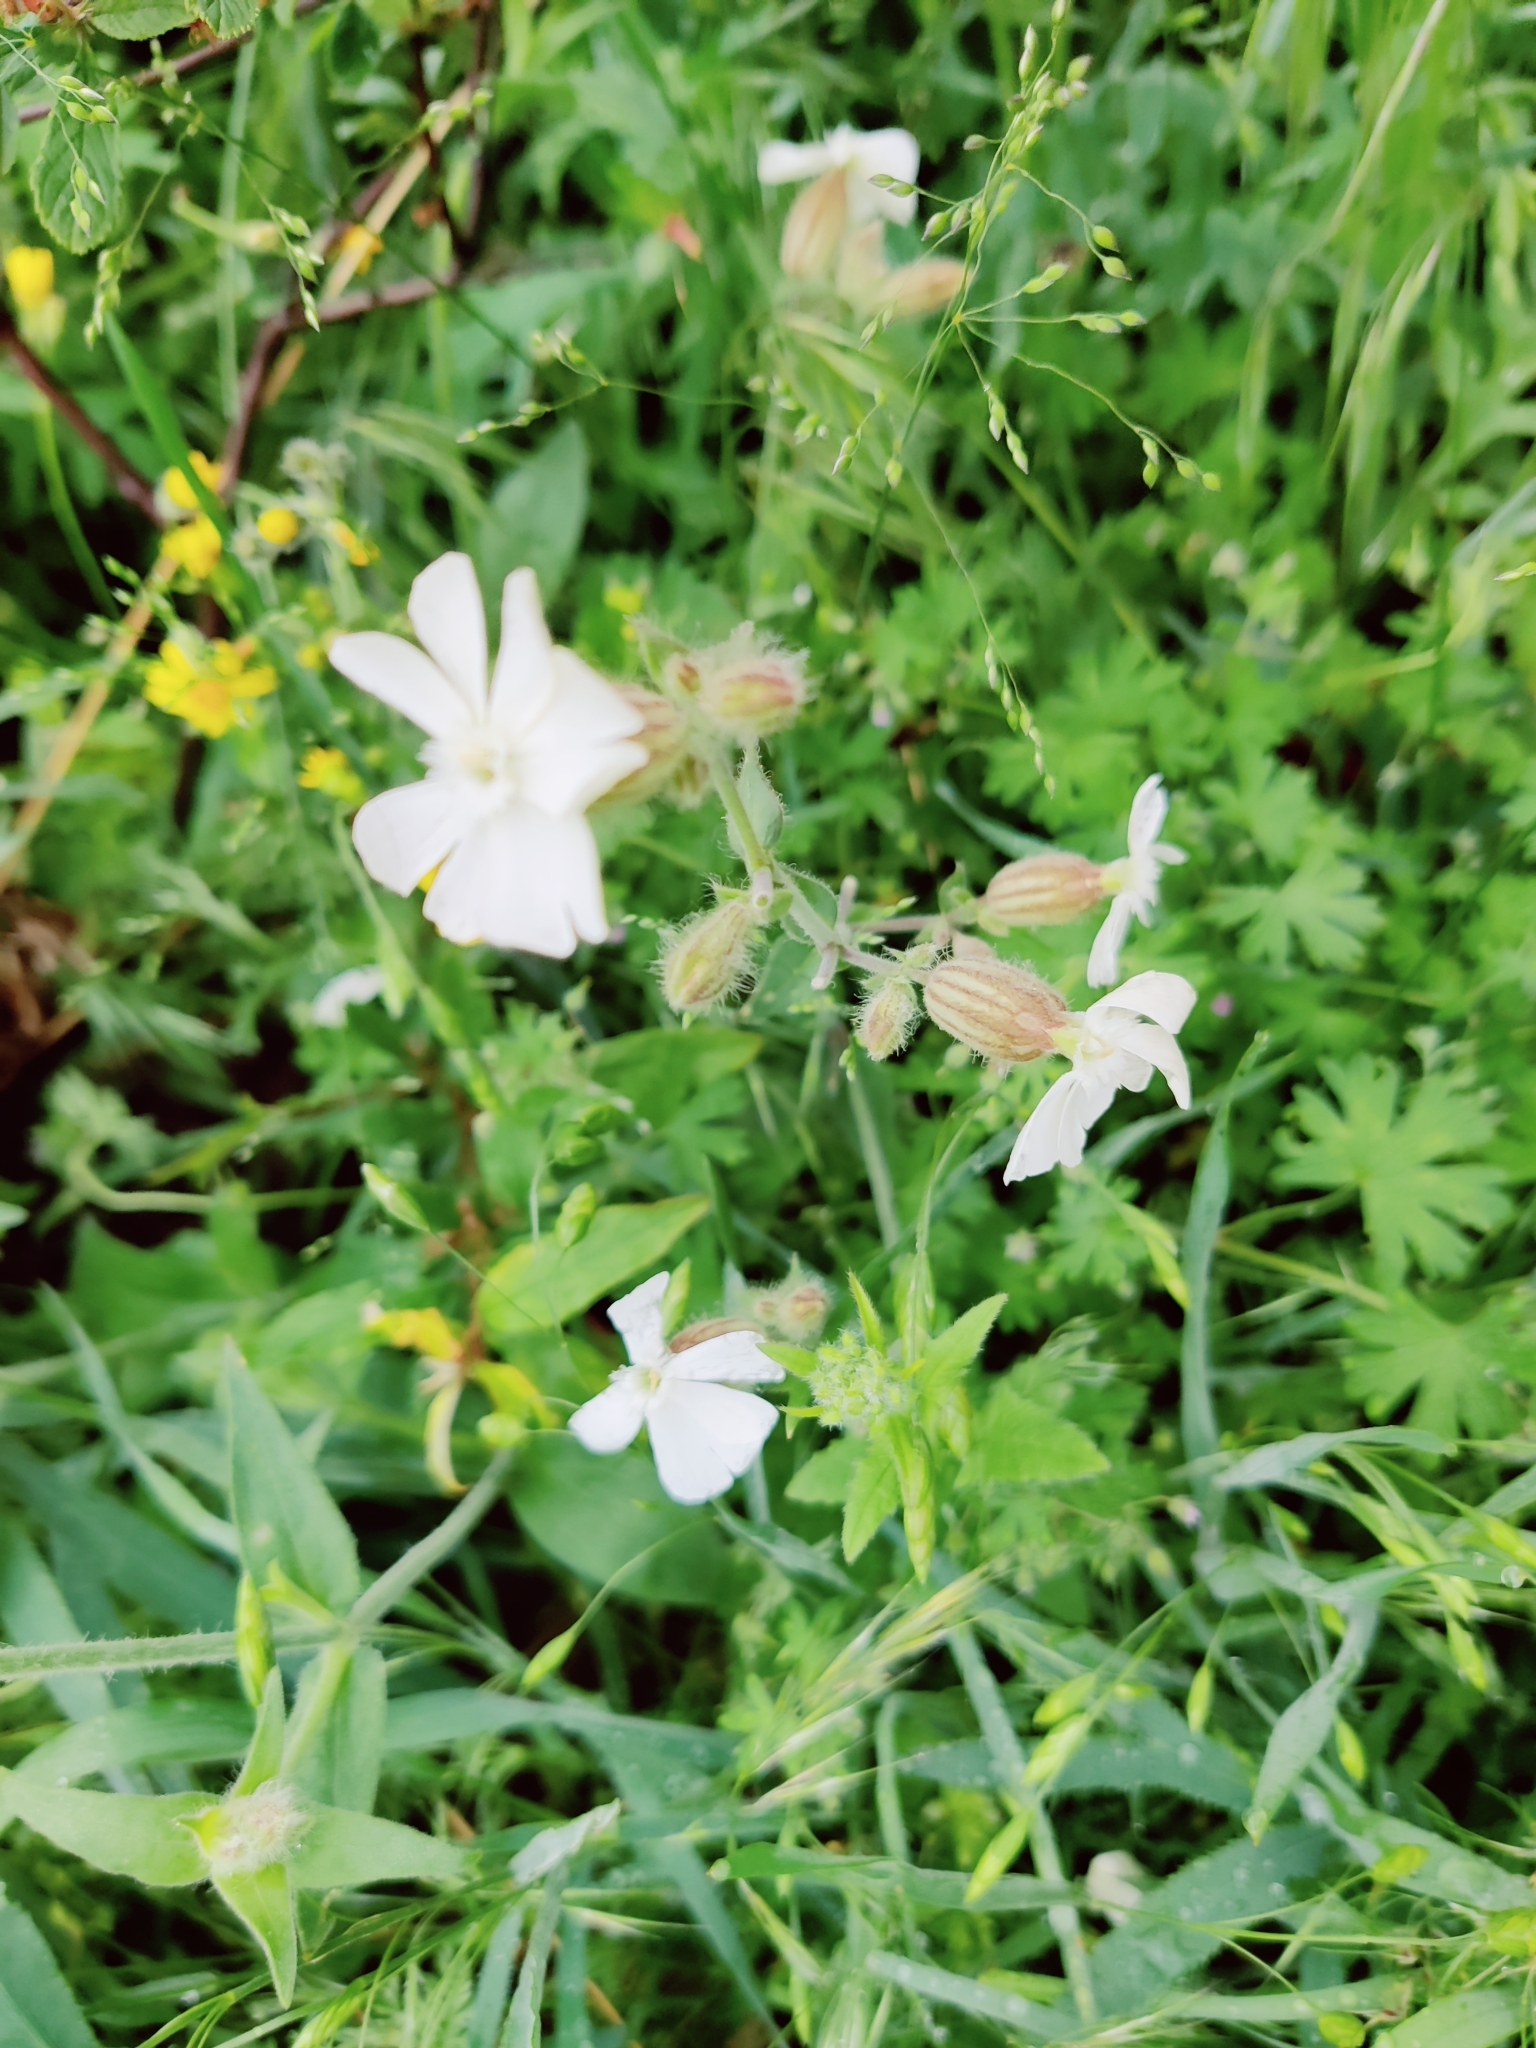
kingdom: Plantae
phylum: Tracheophyta
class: Magnoliopsida
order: Caryophyllales
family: Caryophyllaceae
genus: Silene
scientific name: Silene latifolia
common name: White campion
